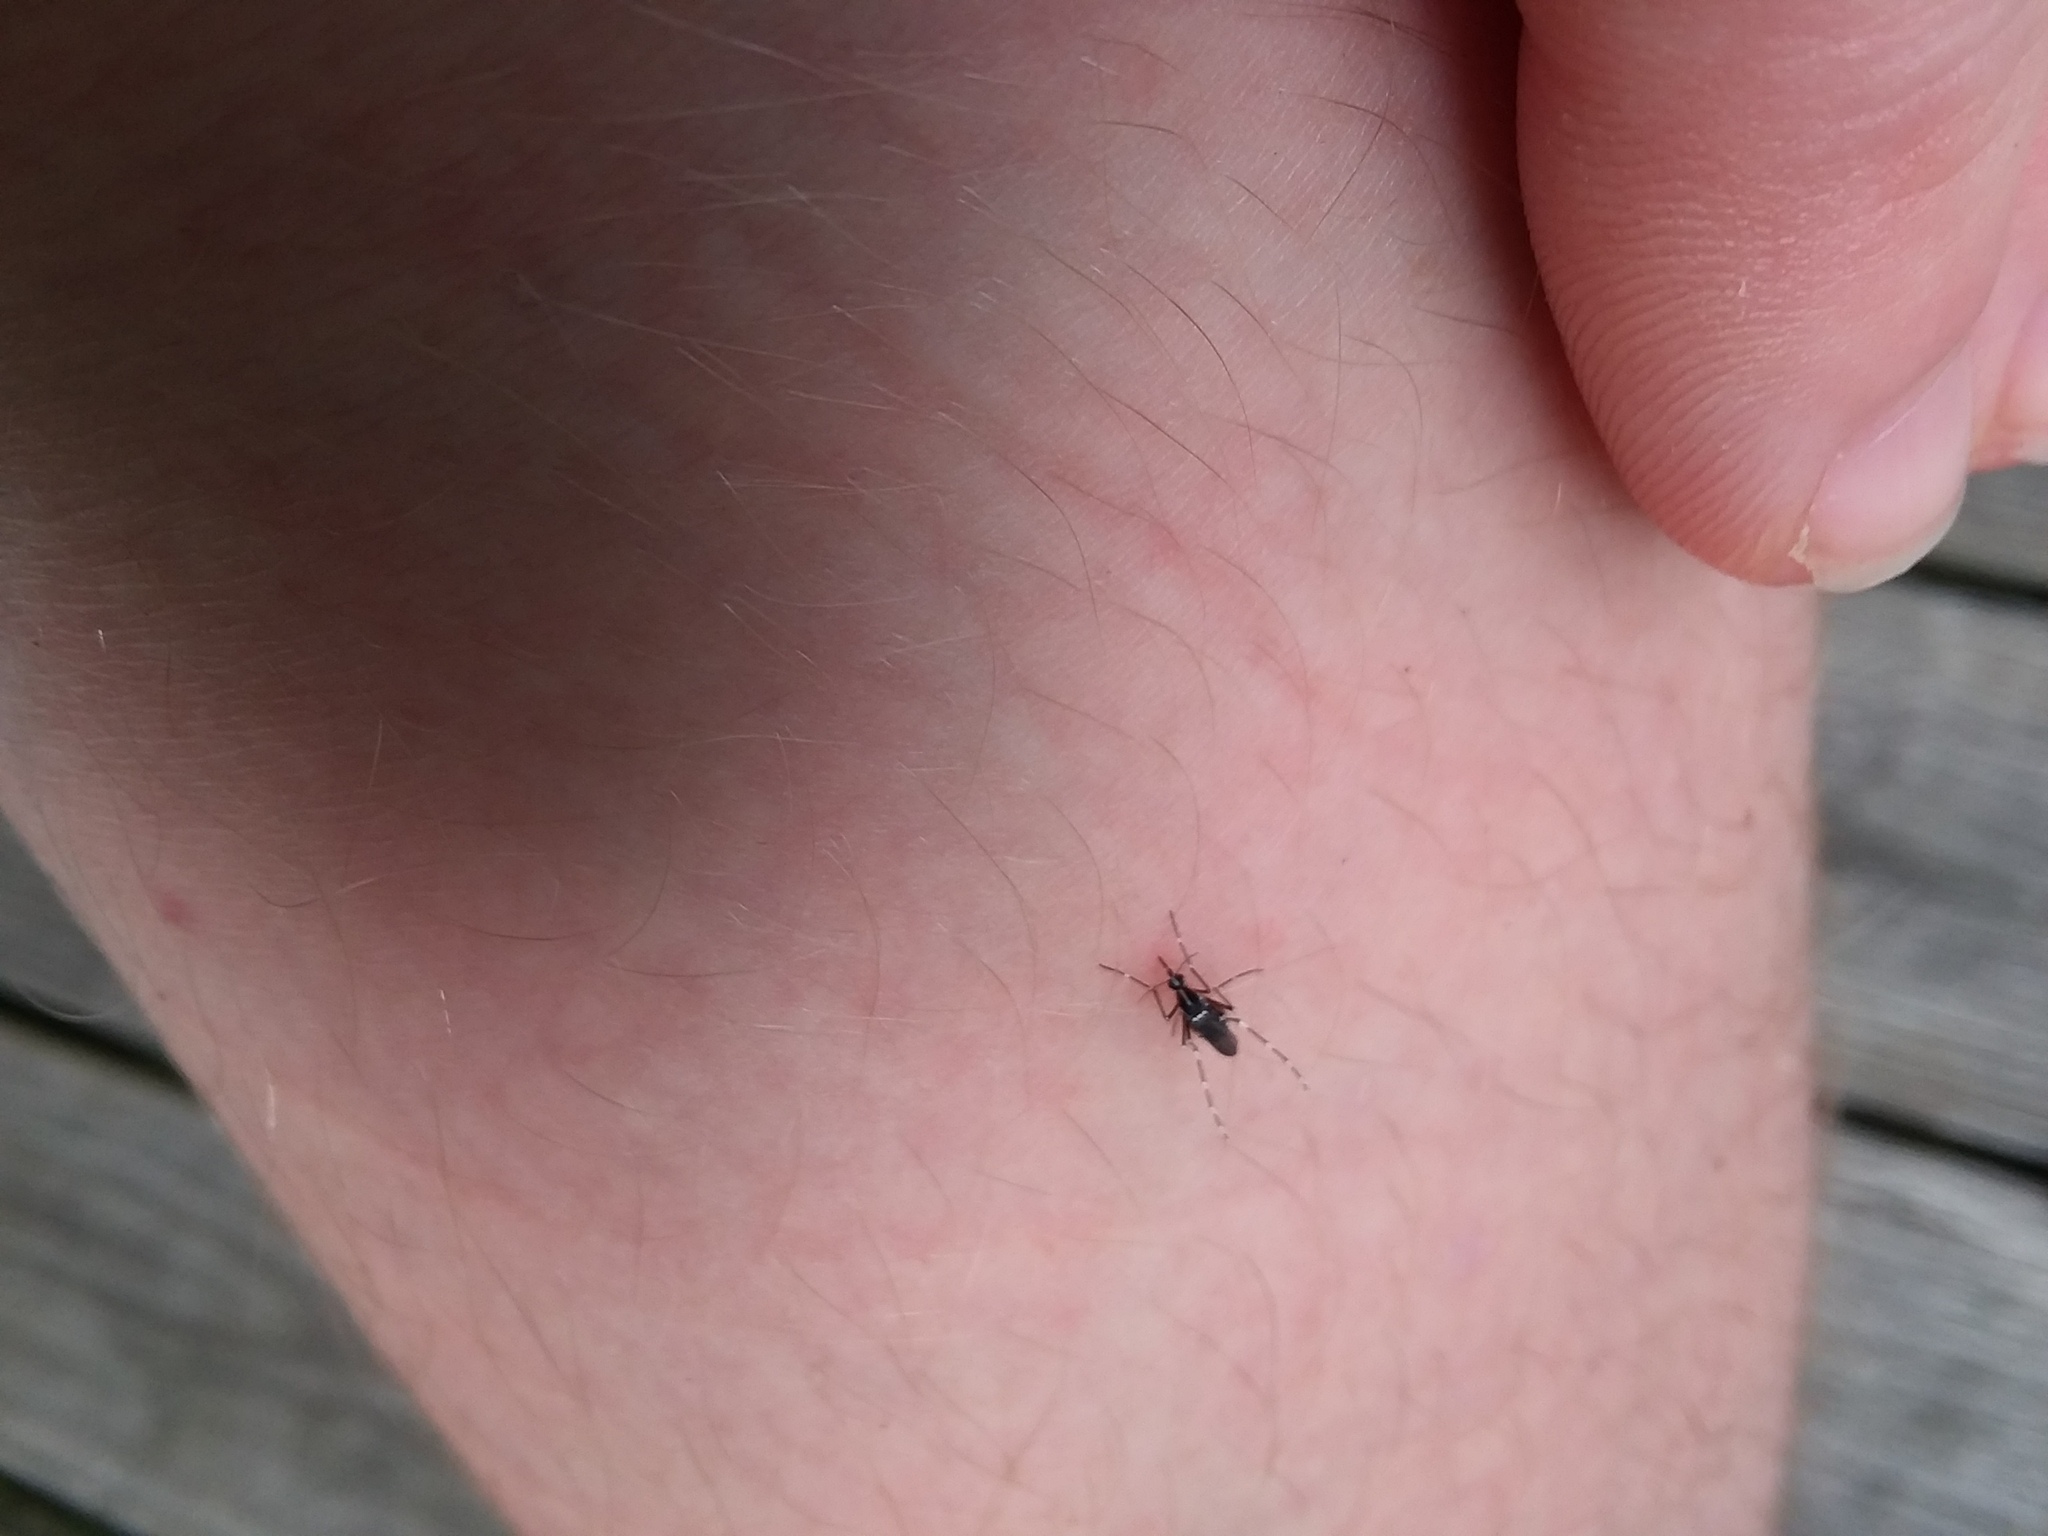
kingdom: Animalia
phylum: Arthropoda
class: Insecta
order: Diptera
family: Culicidae
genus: Aedes
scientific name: Aedes albopictus
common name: Tiger mosquito
